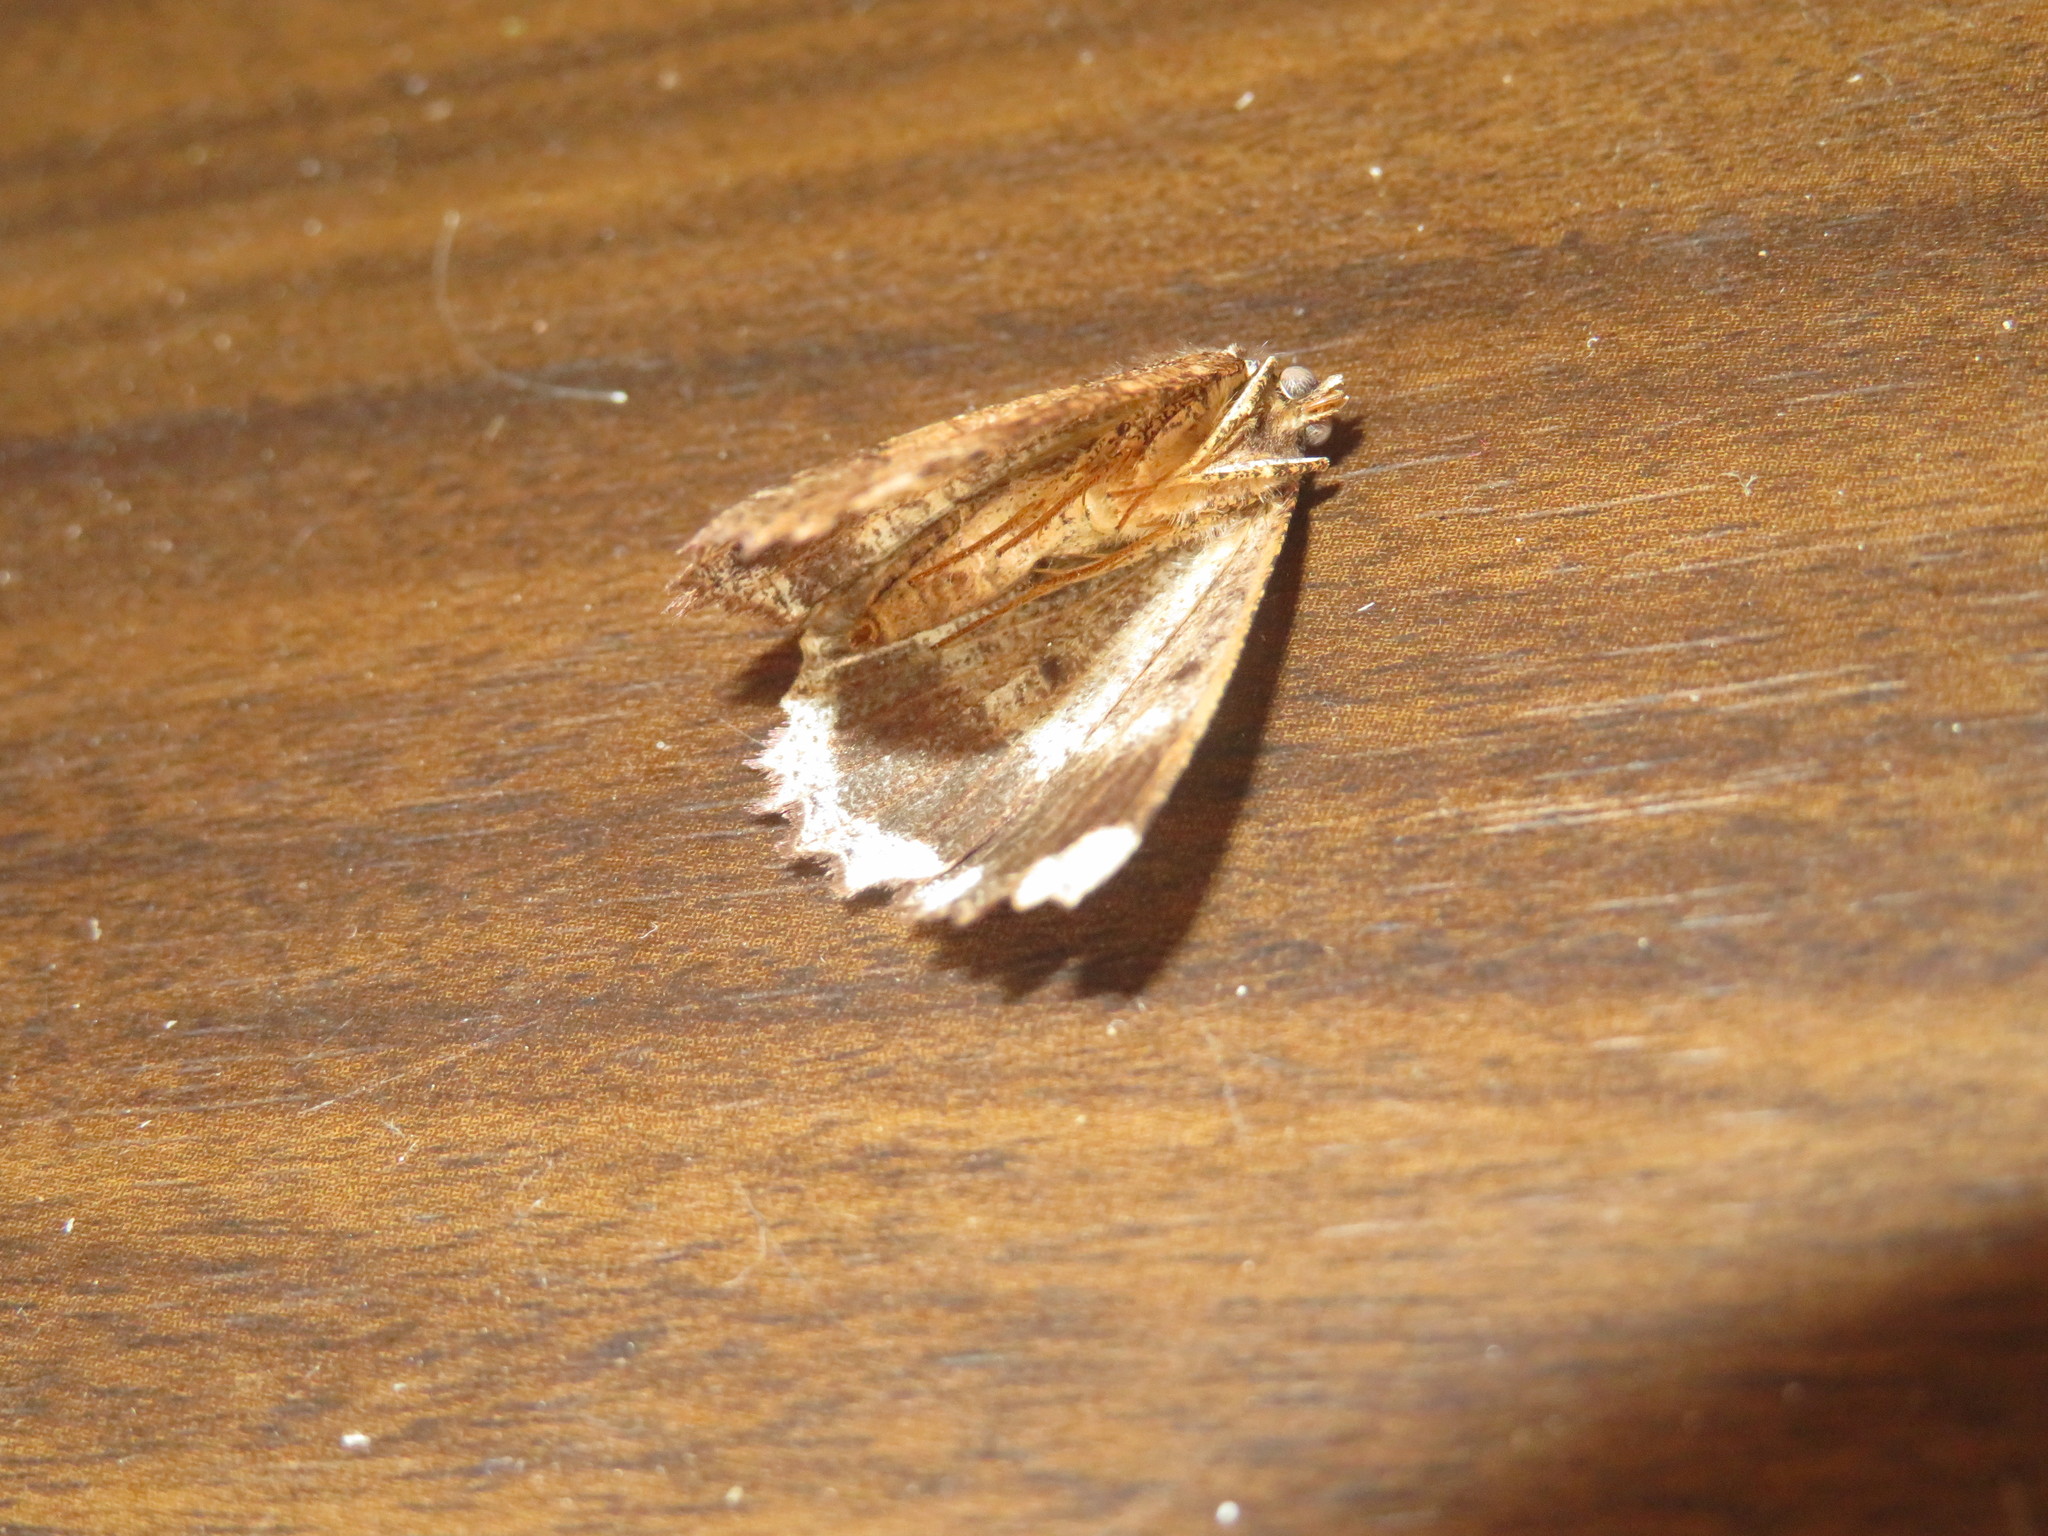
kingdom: Animalia
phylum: Arthropoda
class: Insecta
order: Lepidoptera
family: Geometridae
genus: Gellonia
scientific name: Gellonia dejectaria
